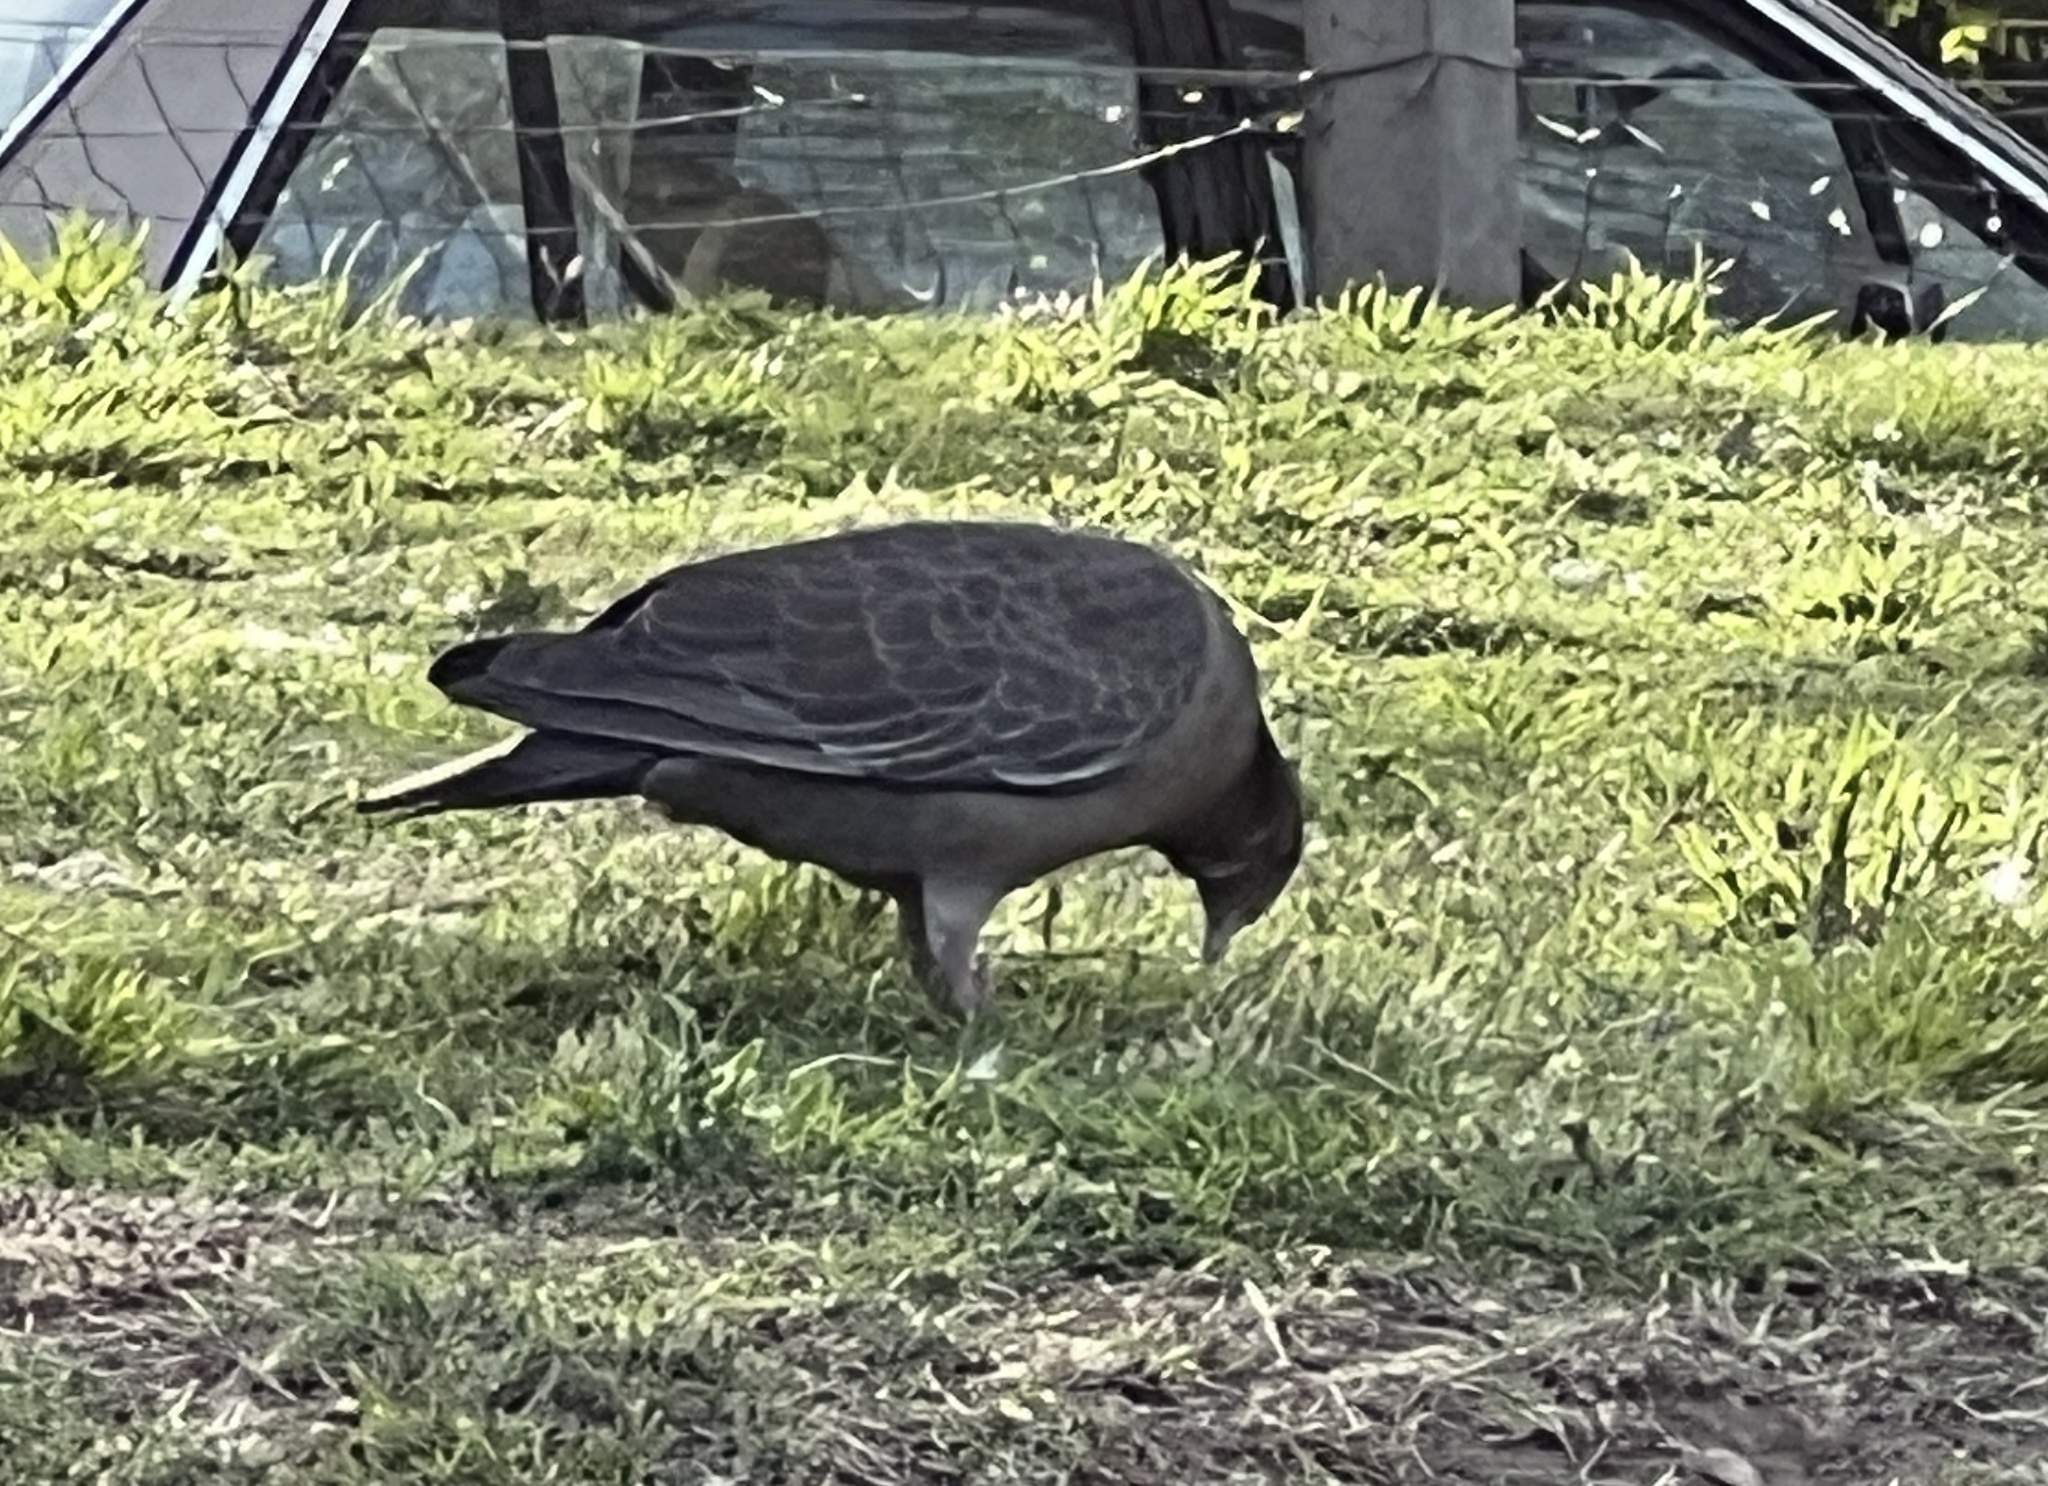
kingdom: Animalia
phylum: Chordata
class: Aves
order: Columbiformes
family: Columbidae
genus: Patagioenas
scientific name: Patagioenas picazuro
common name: Picazuro pigeon
